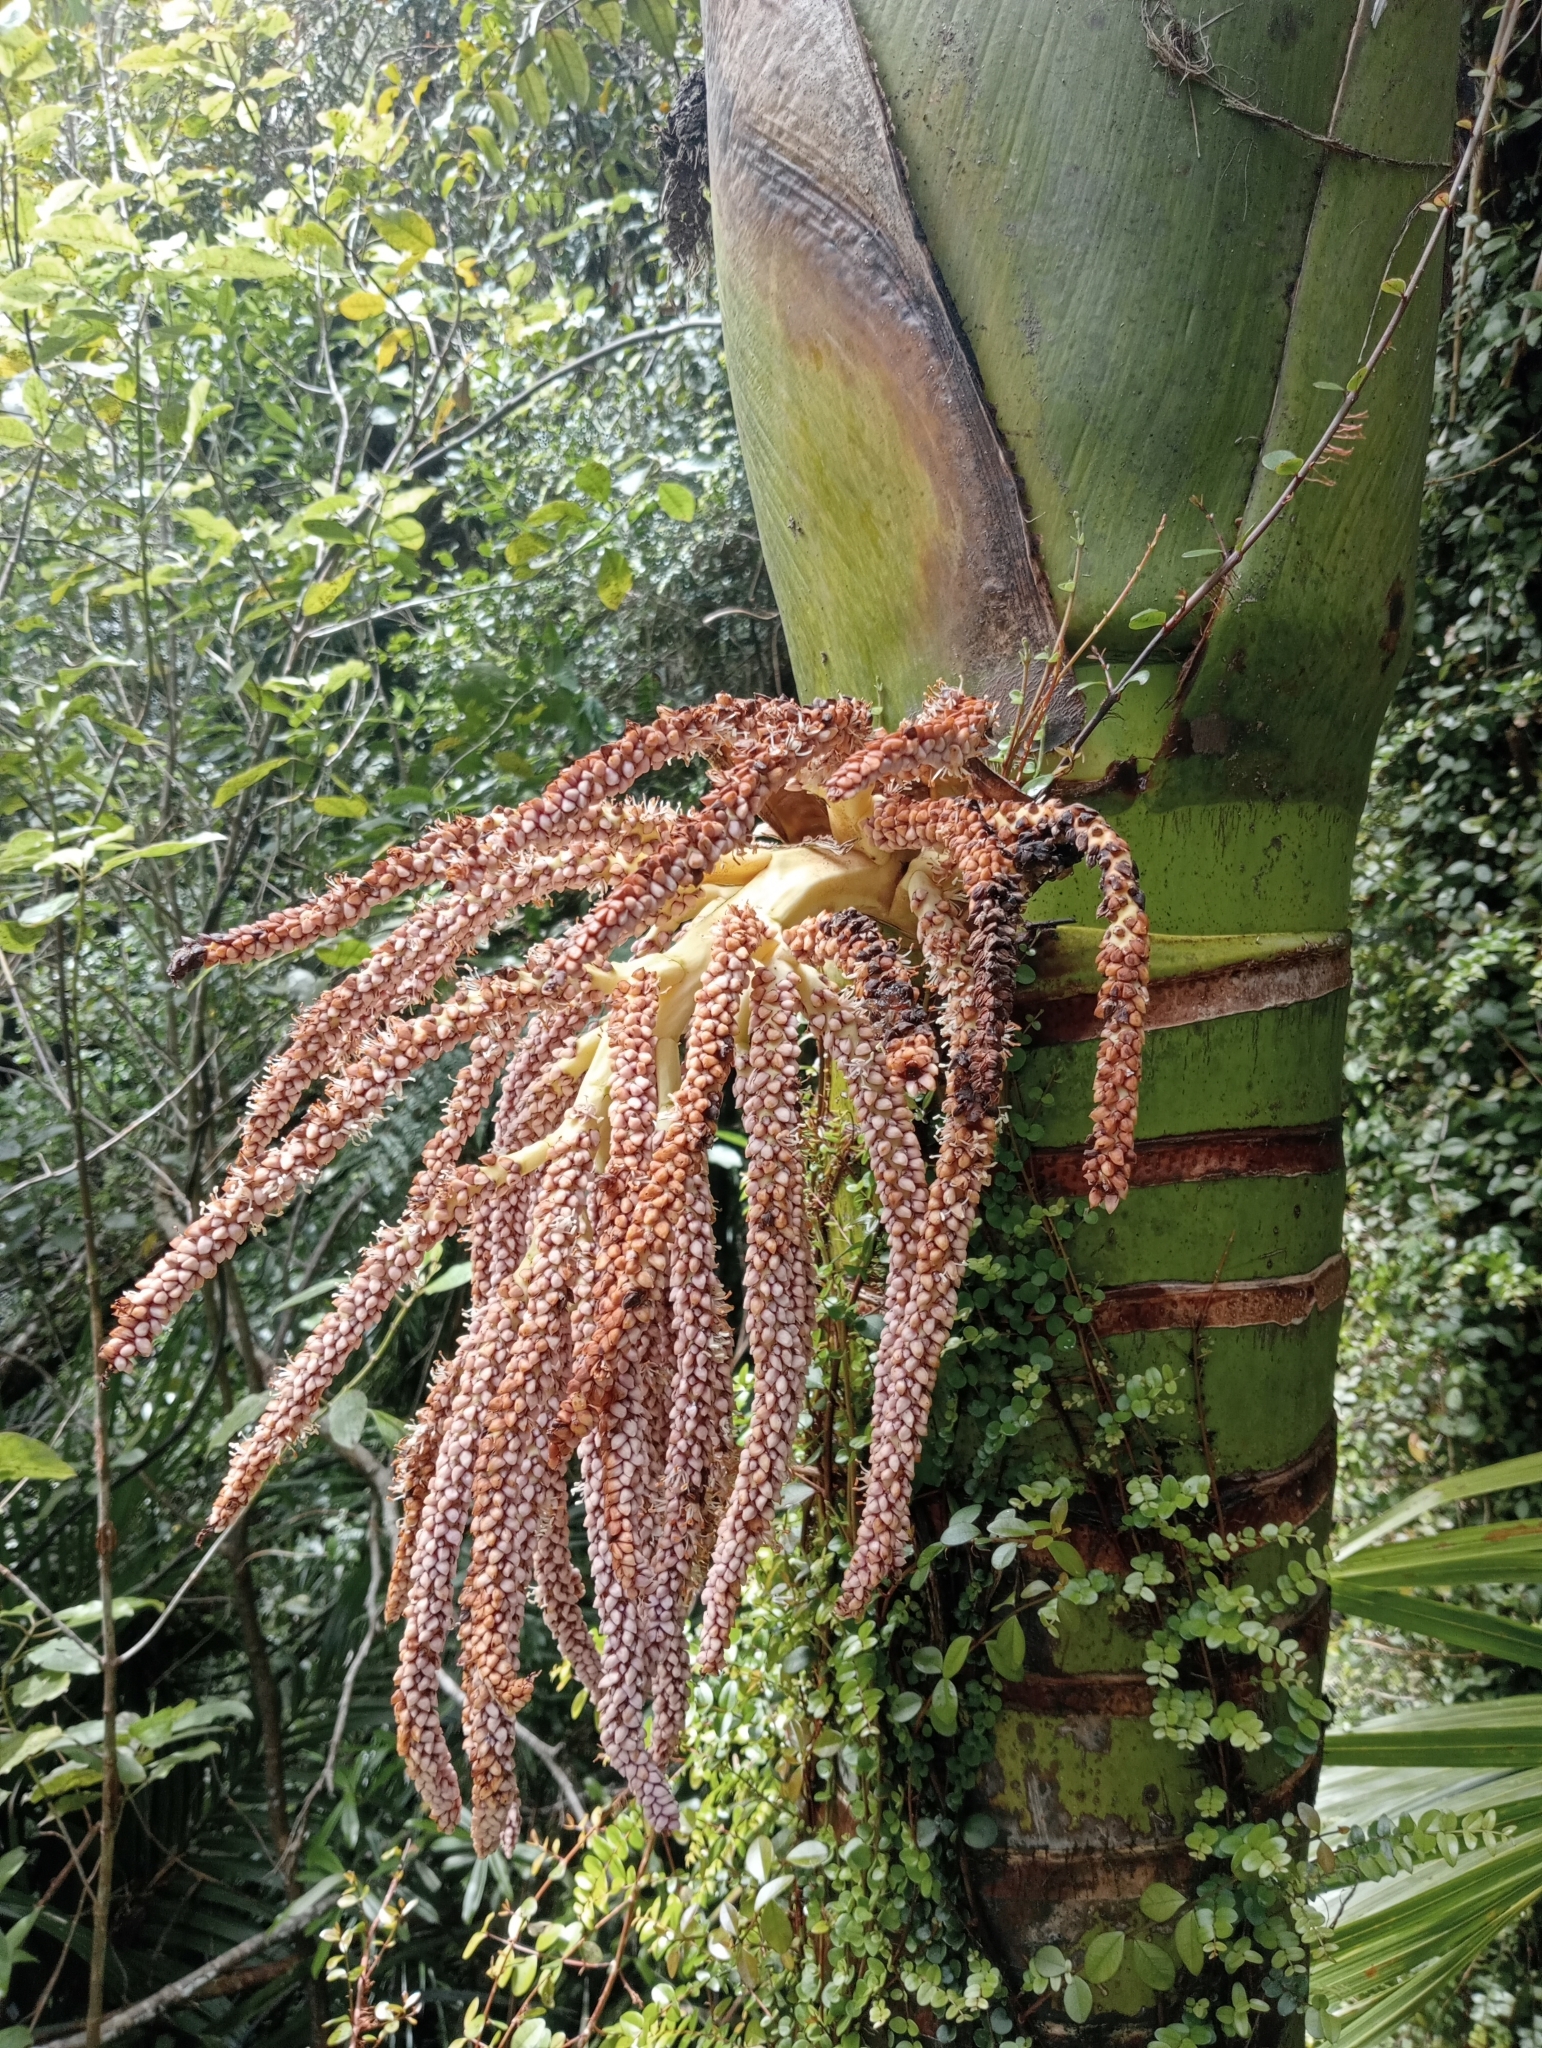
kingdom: Plantae
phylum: Tracheophyta
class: Liliopsida
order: Arecales
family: Arecaceae
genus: Rhopalostylis
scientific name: Rhopalostylis sapida
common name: Feather-duster palm
